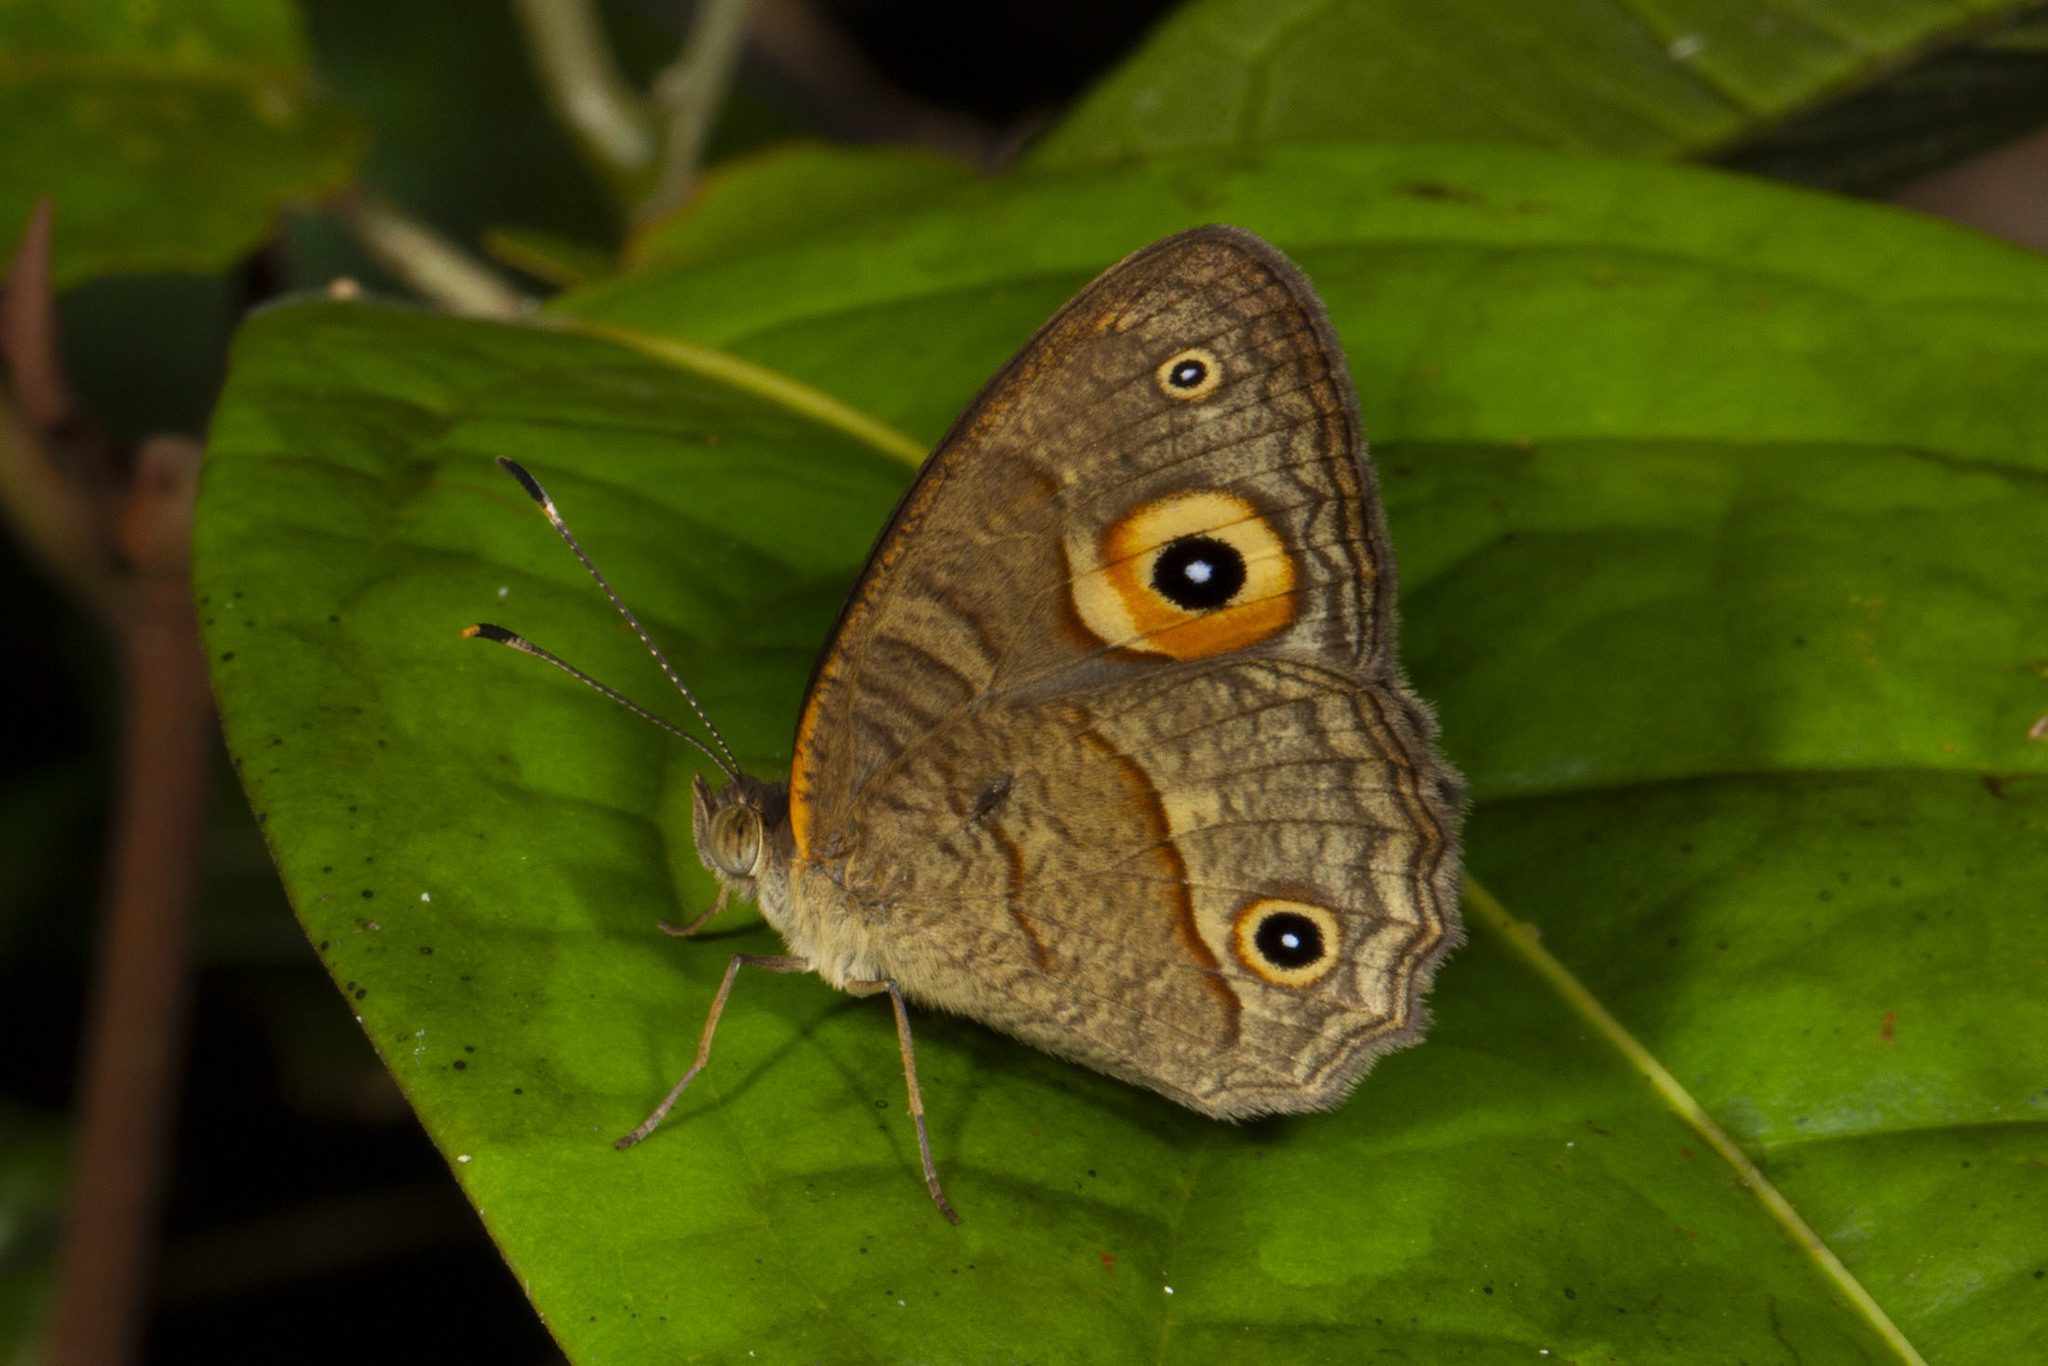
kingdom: Animalia
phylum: Arthropoda
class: Insecta
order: Lepidoptera
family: Nymphalidae
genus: Heteropsis
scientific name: Heteropsis kremenae
